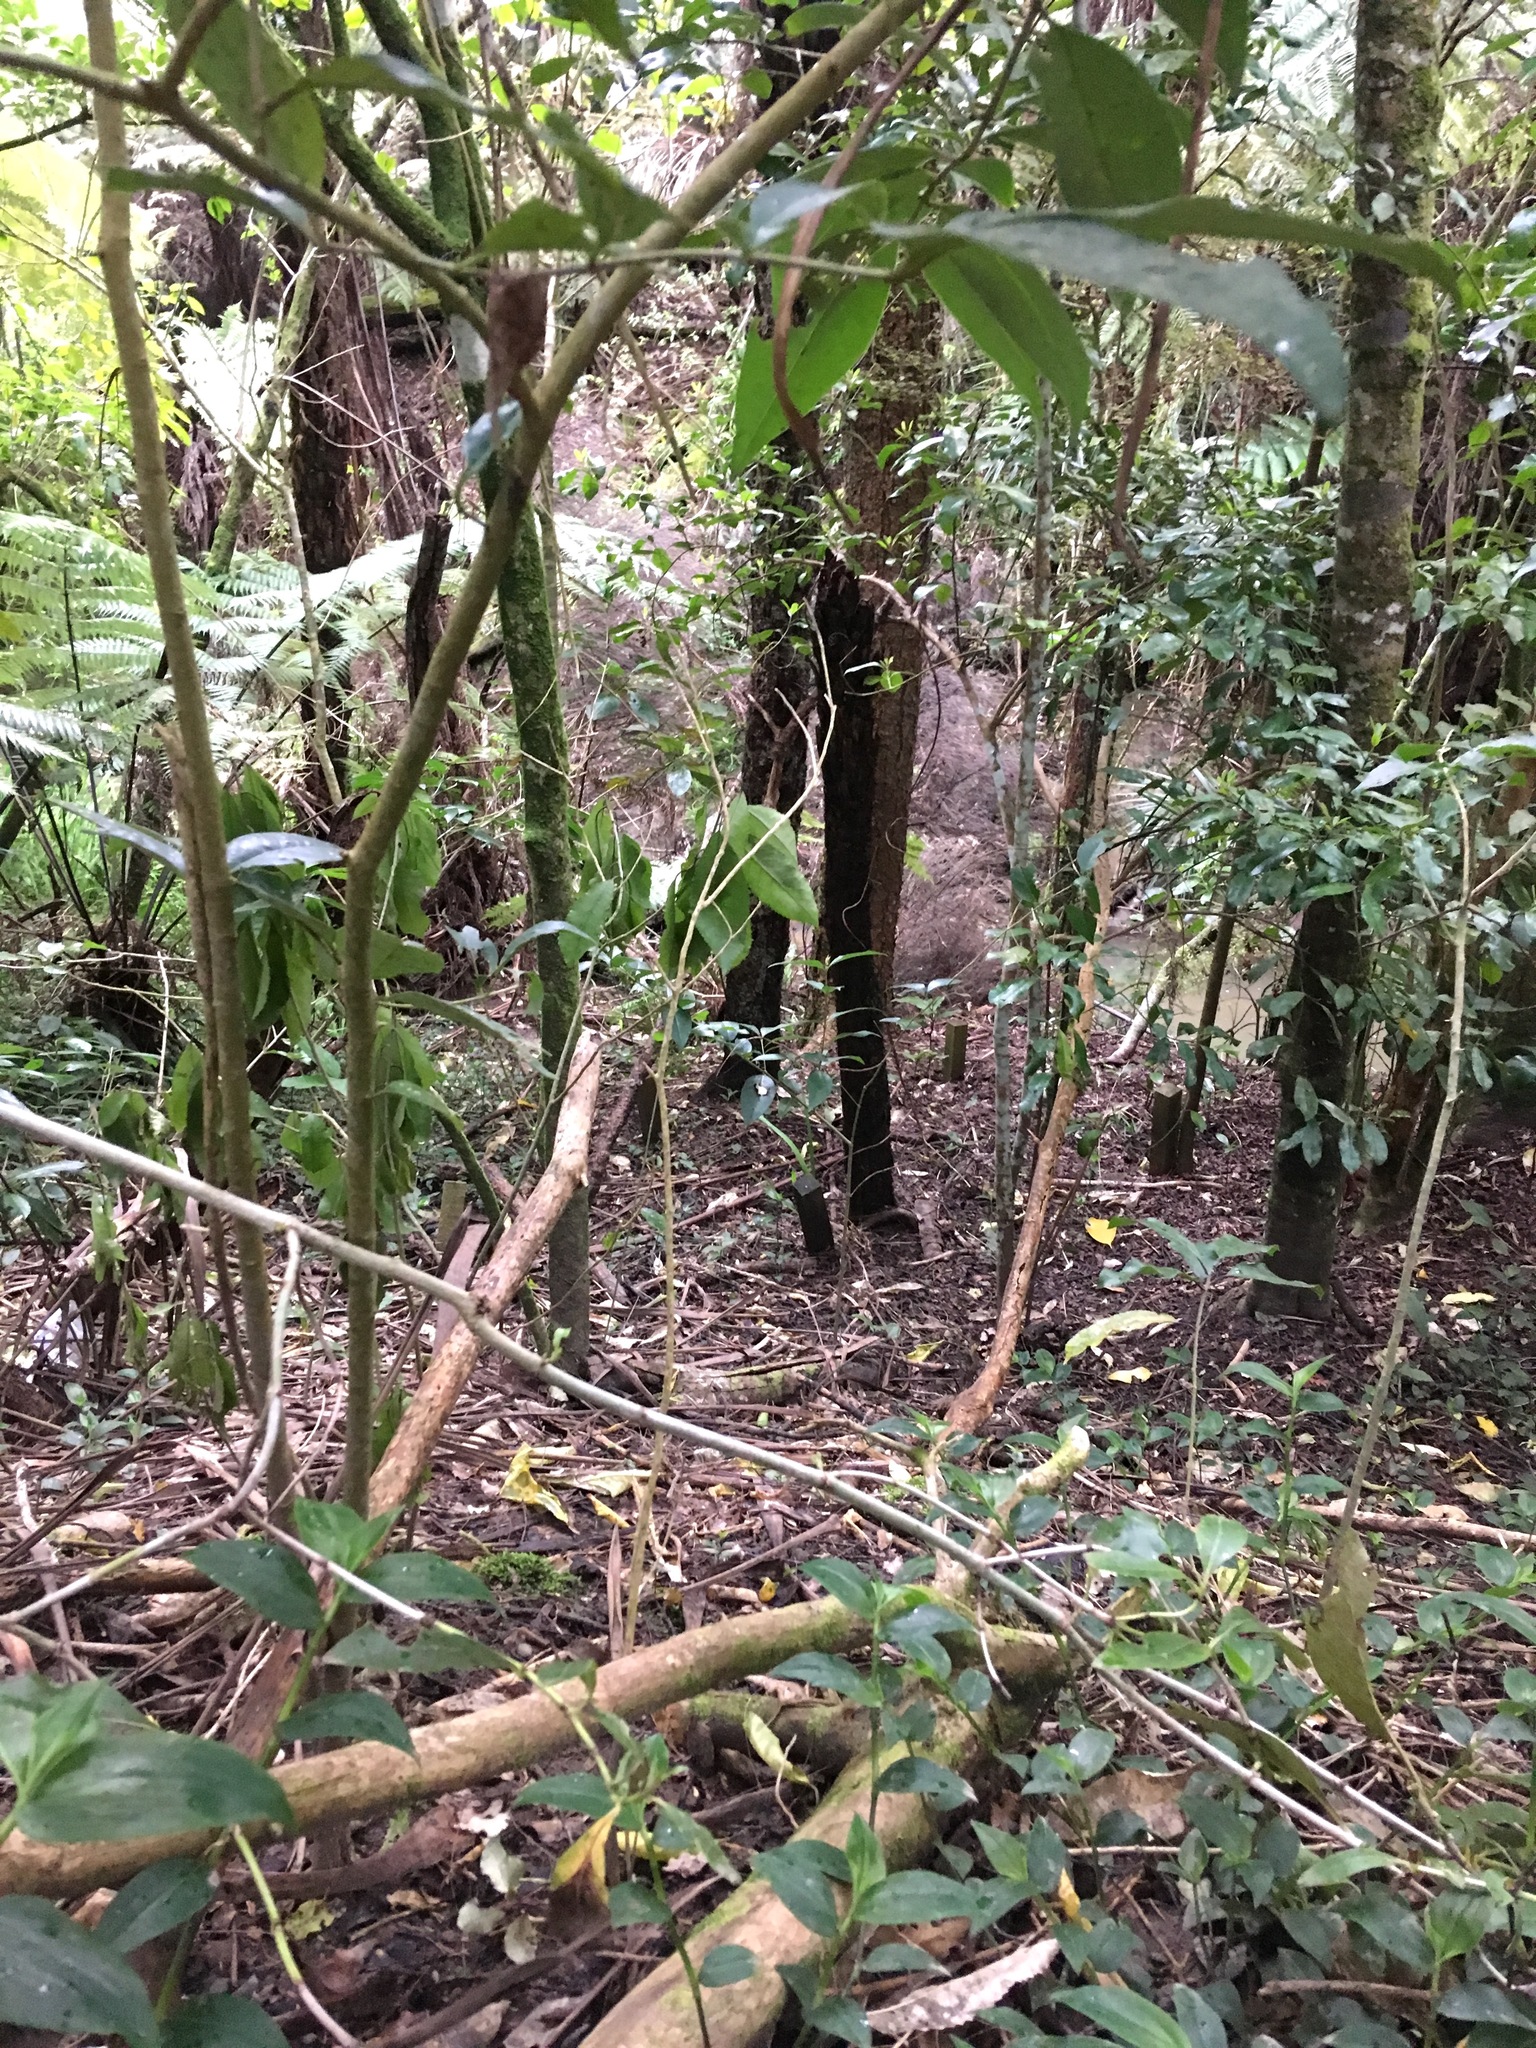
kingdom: Plantae
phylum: Tracheophyta
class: Liliopsida
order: Commelinales
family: Commelinaceae
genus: Tradescantia
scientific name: Tradescantia fluminensis
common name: Wandering-jew
